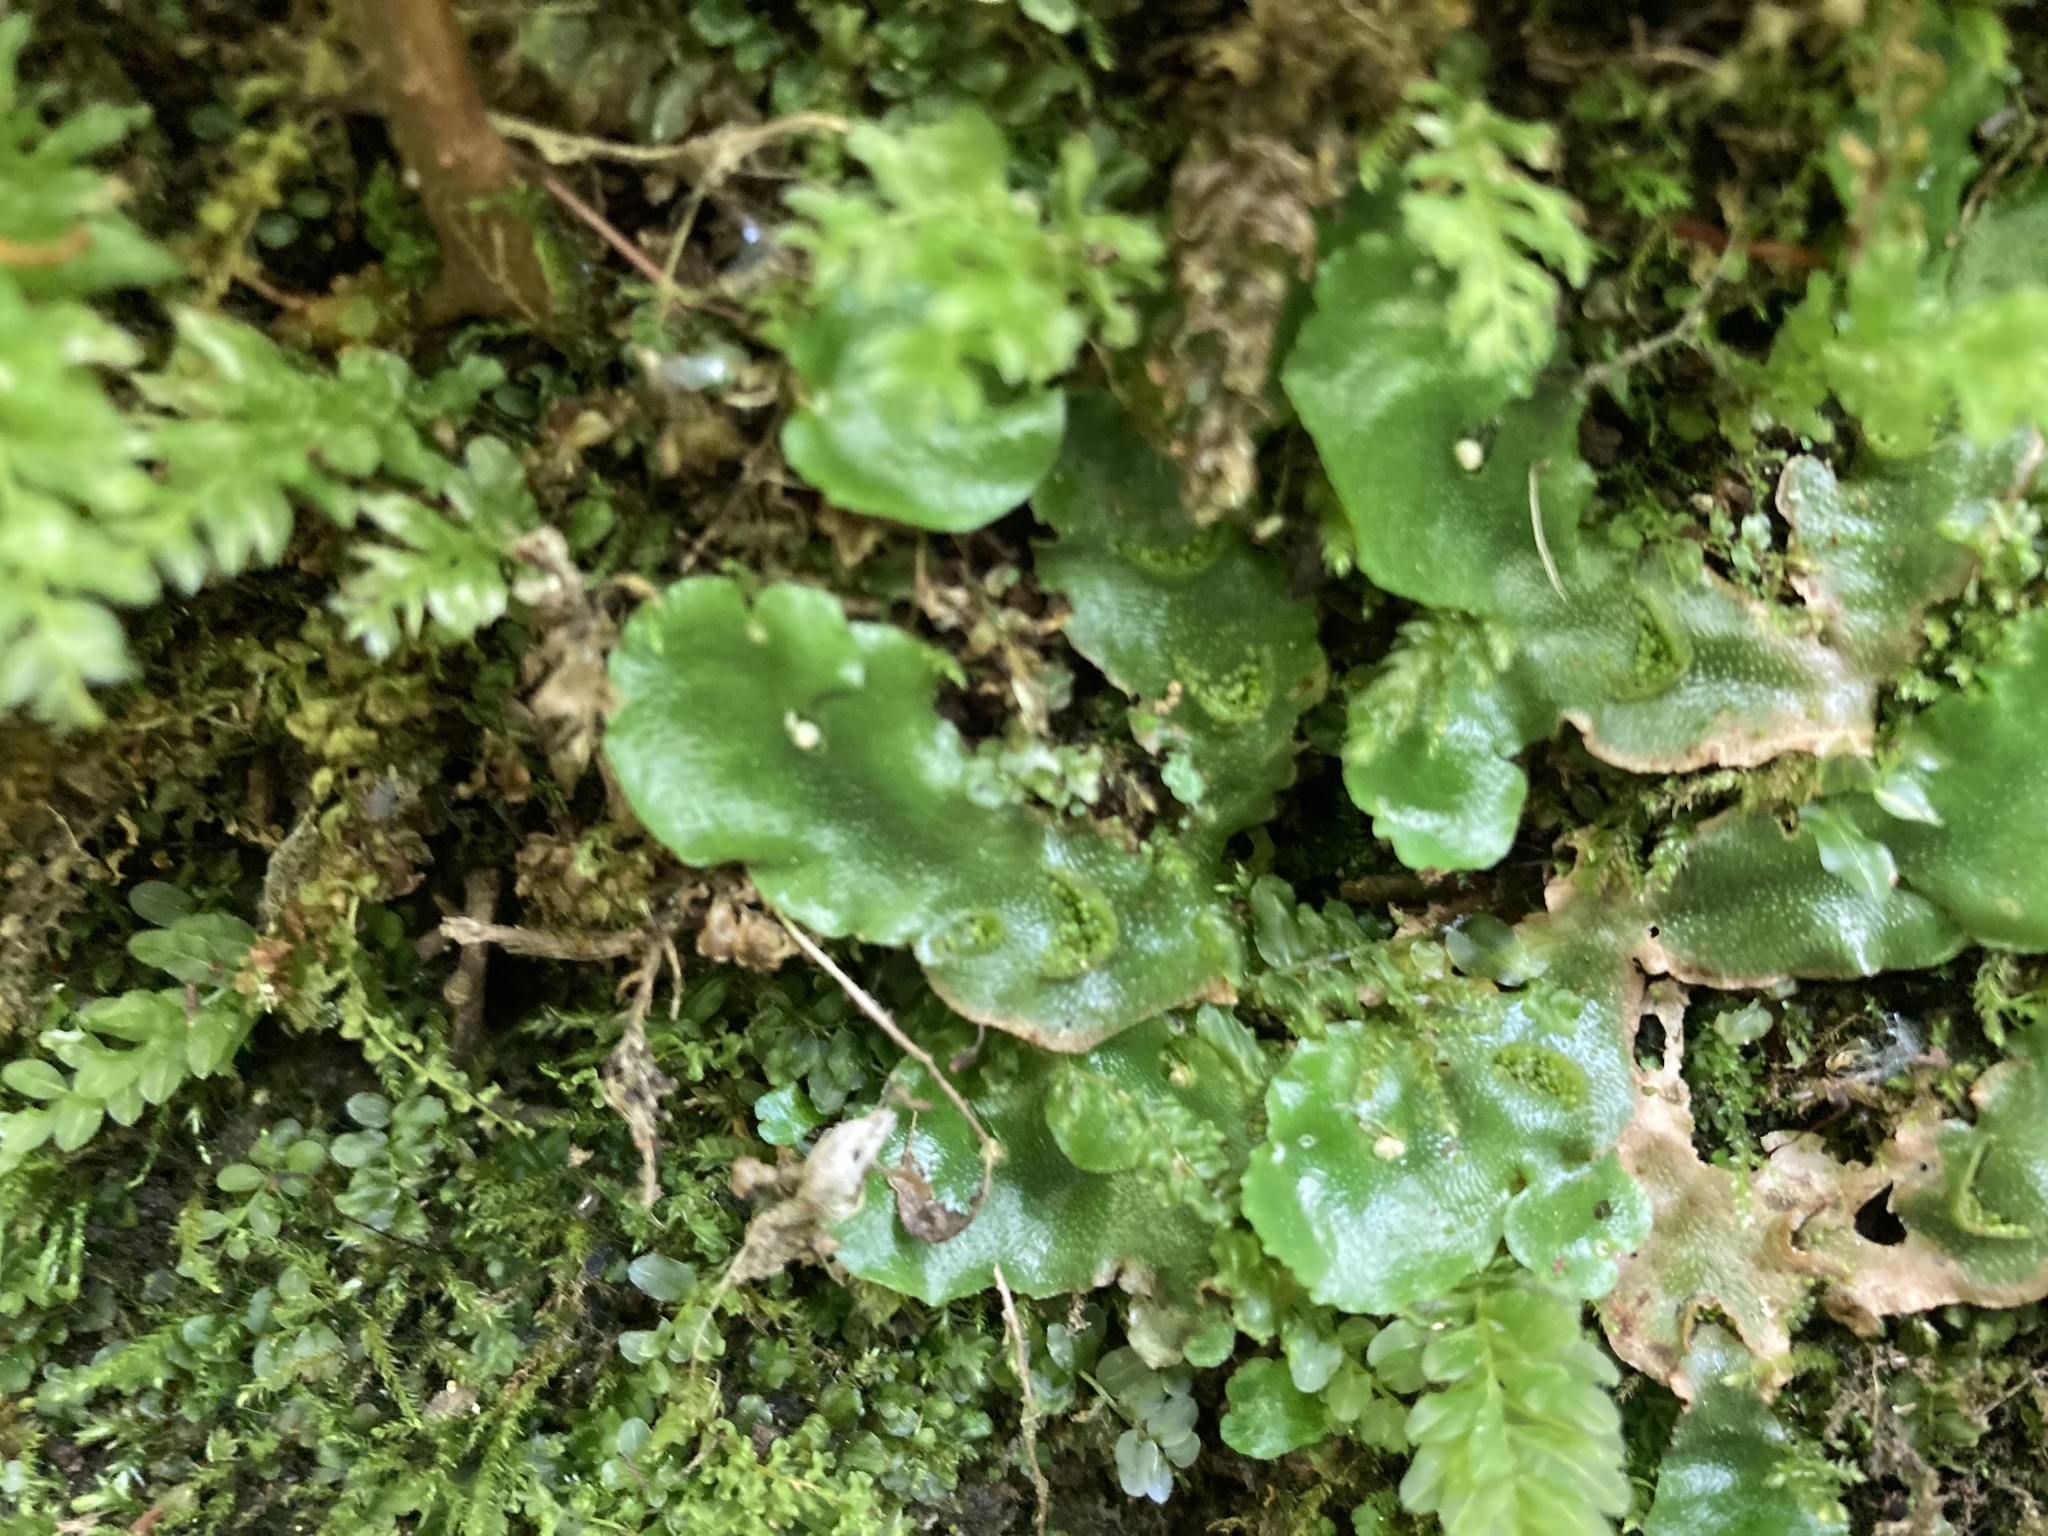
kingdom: Plantae
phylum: Marchantiophyta
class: Marchantiopsida
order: Lunulariales
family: Lunulariaceae
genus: Lunularia
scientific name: Lunularia cruciata
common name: Crescent-cup liverwort
